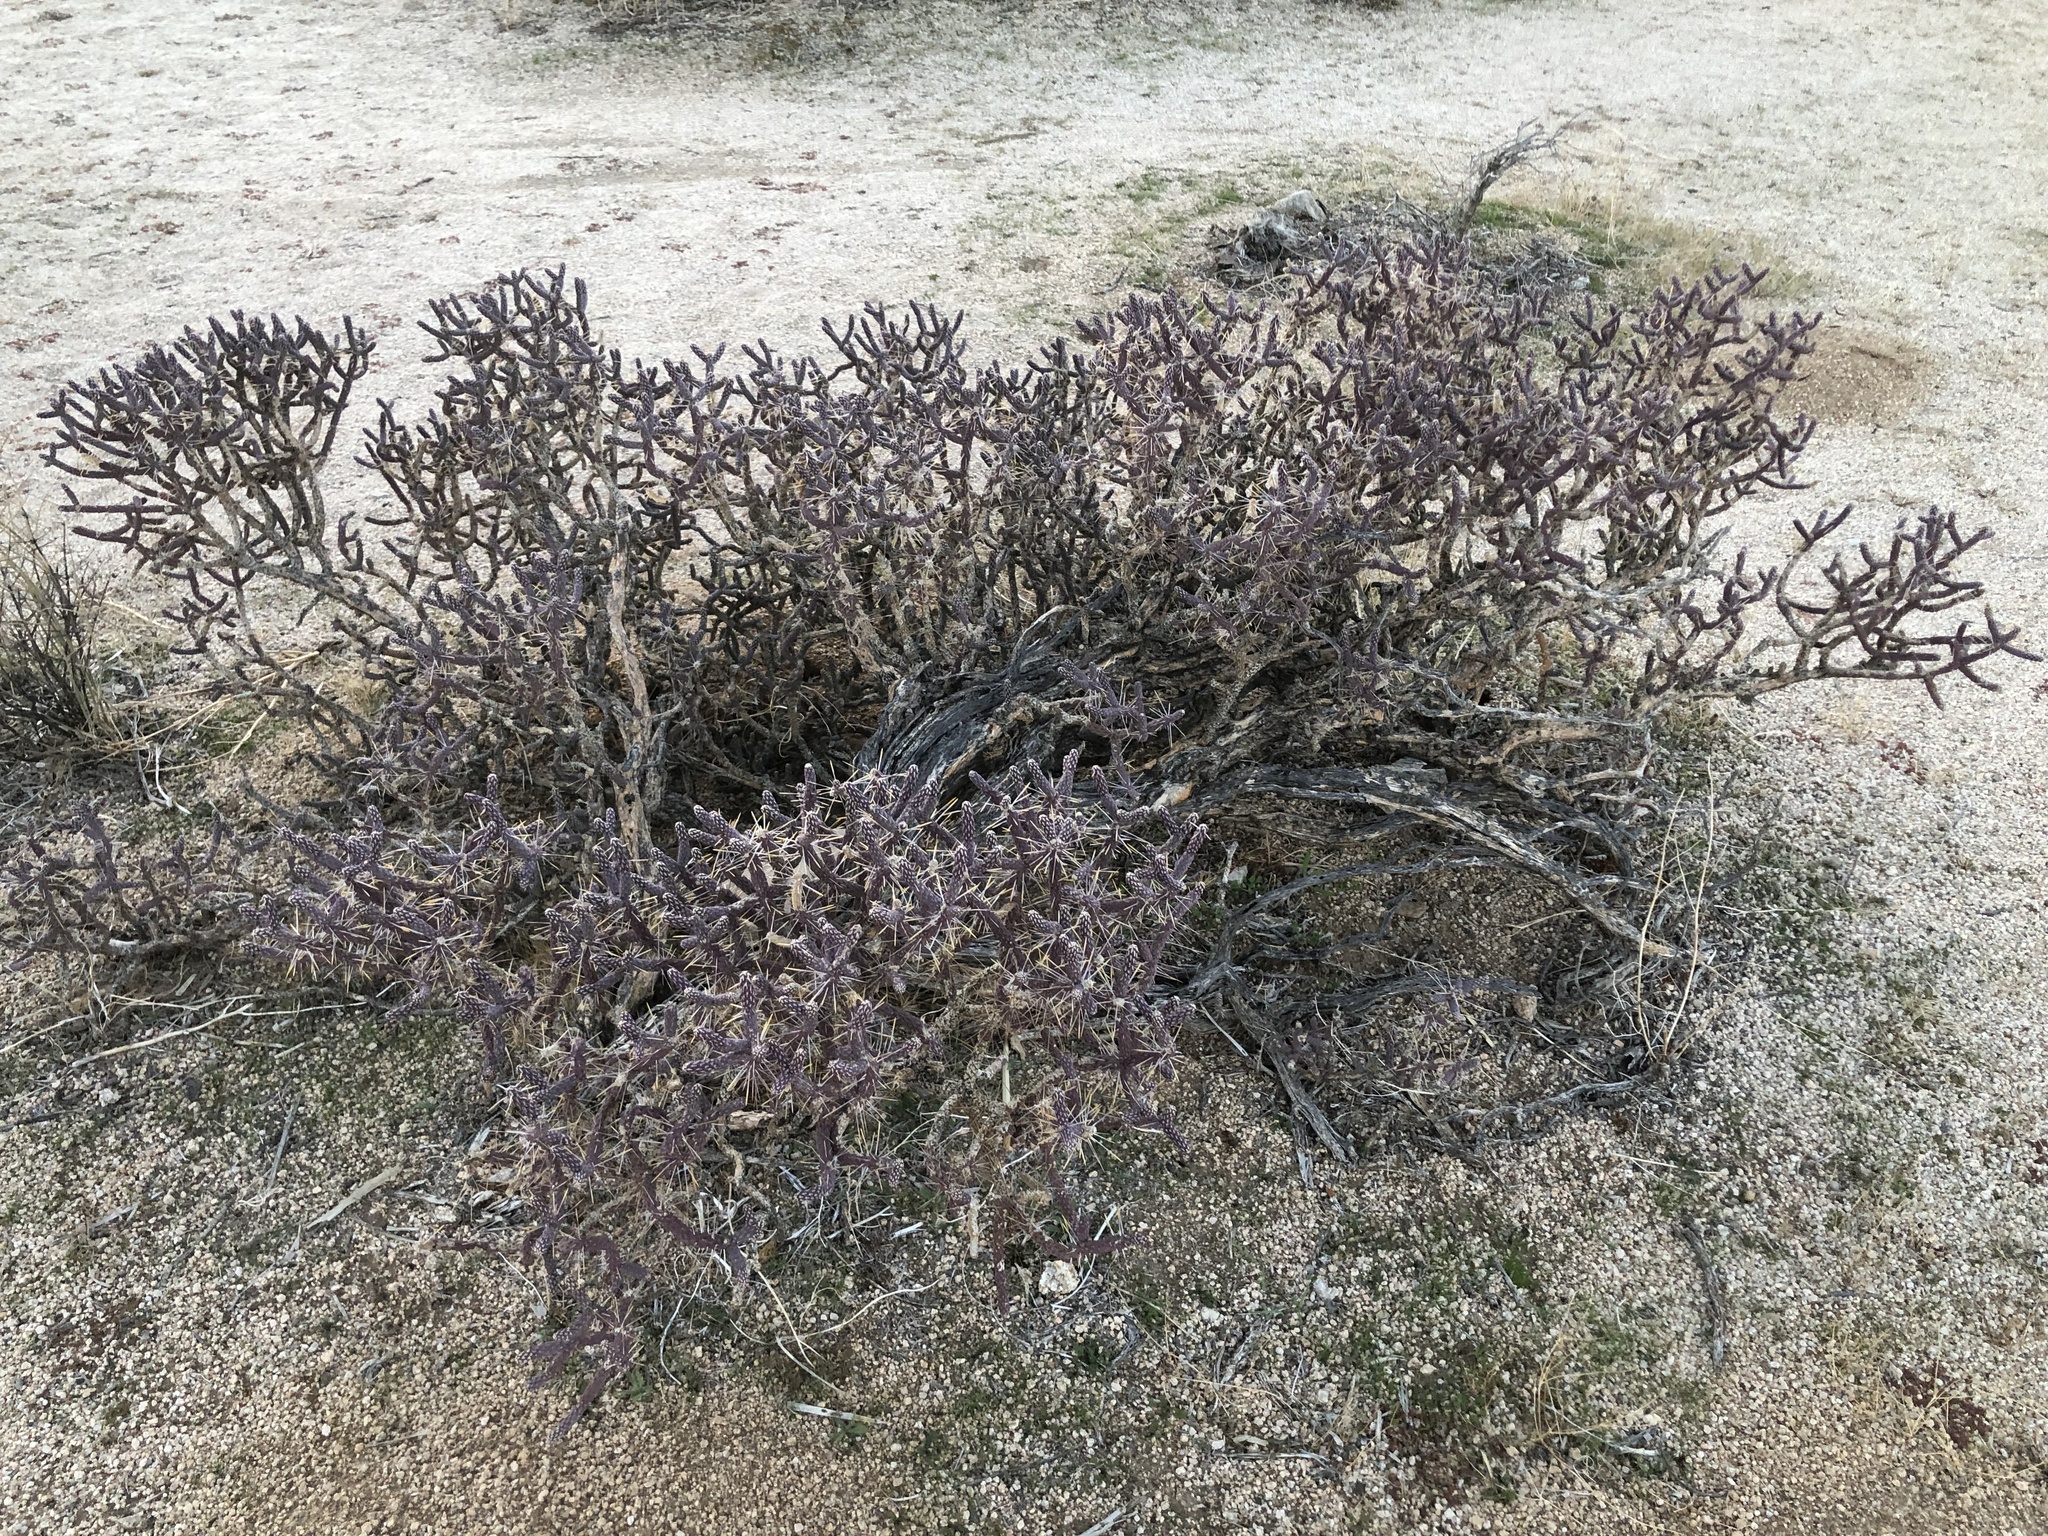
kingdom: Plantae
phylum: Tracheophyta
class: Magnoliopsida
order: Caryophyllales
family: Cactaceae
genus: Cylindropuntia
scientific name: Cylindropuntia ramosissima
